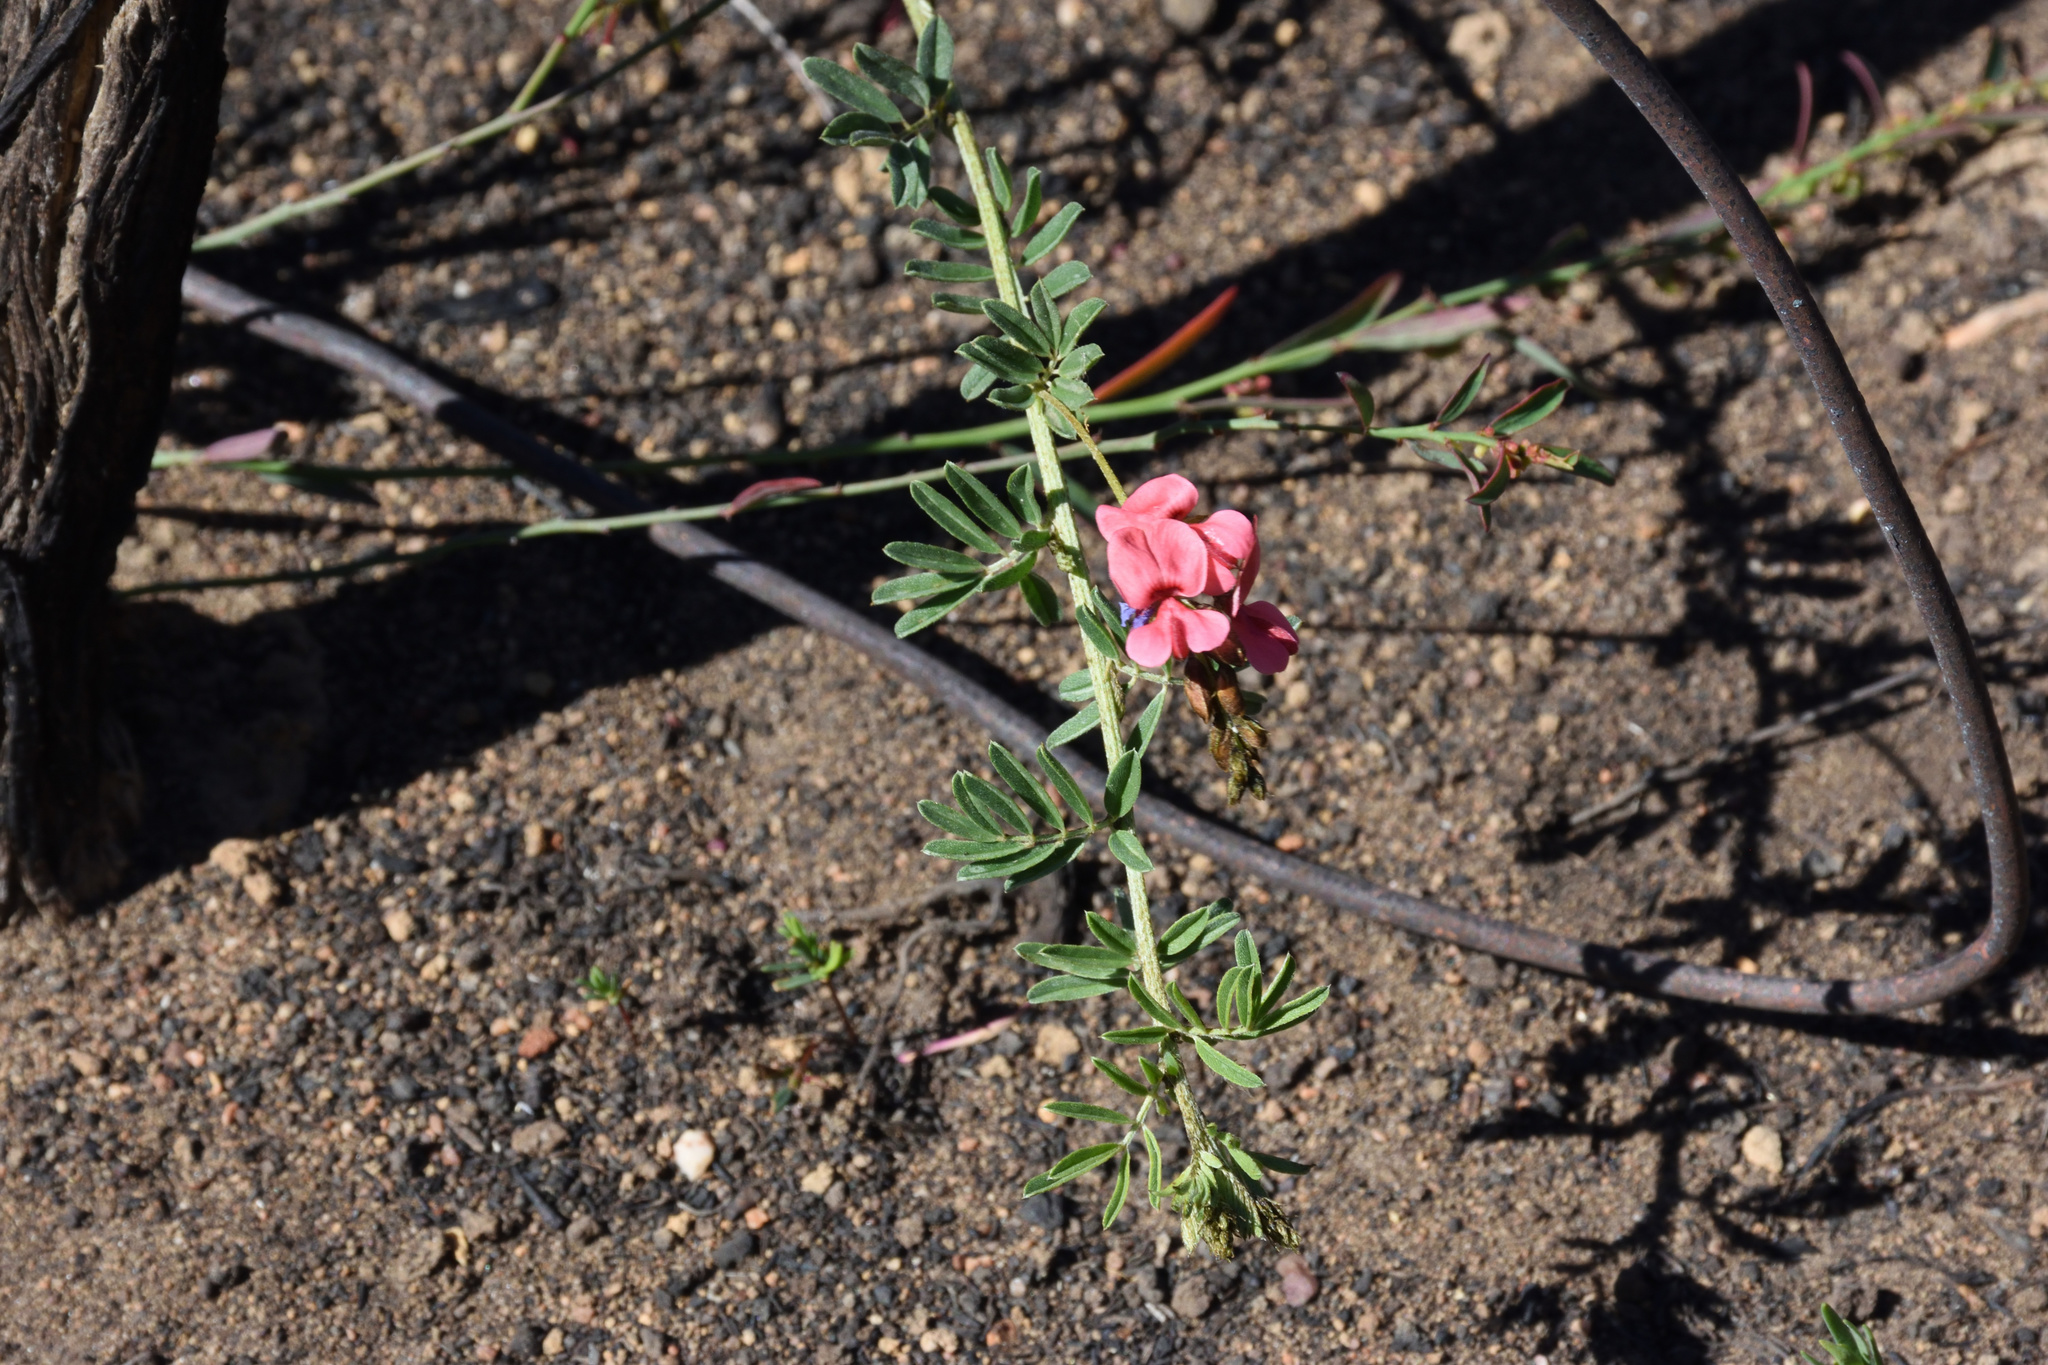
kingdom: Plantae
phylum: Tracheophyta
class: Magnoliopsida
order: Fabales
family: Fabaceae
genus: Indigofera
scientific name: Indigofera poliotes
